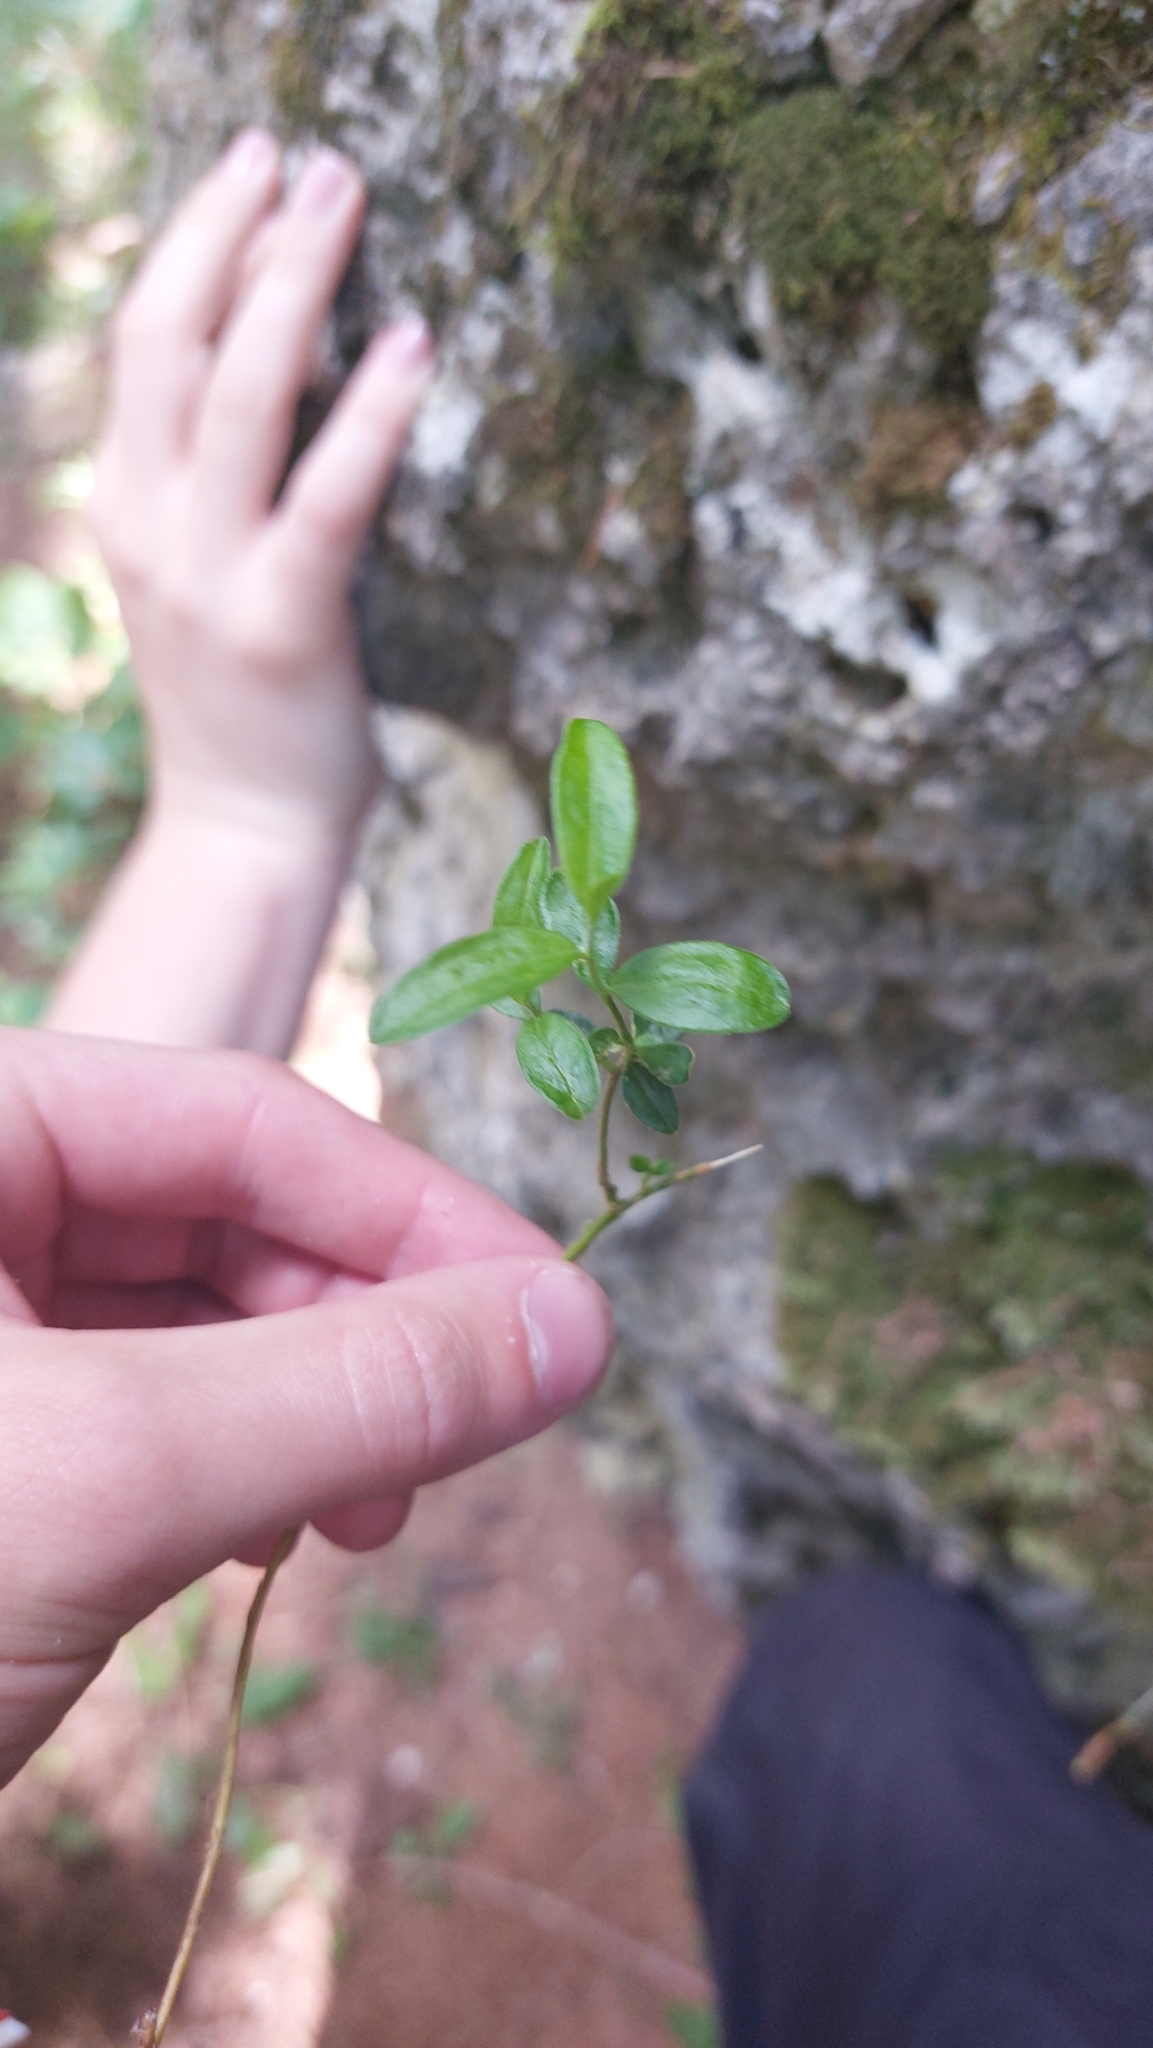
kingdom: Plantae
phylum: Tracheophyta
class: Magnoliopsida
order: Fabales
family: Polygalaceae
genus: Polygaloides
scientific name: Polygaloides chamaebuxus
